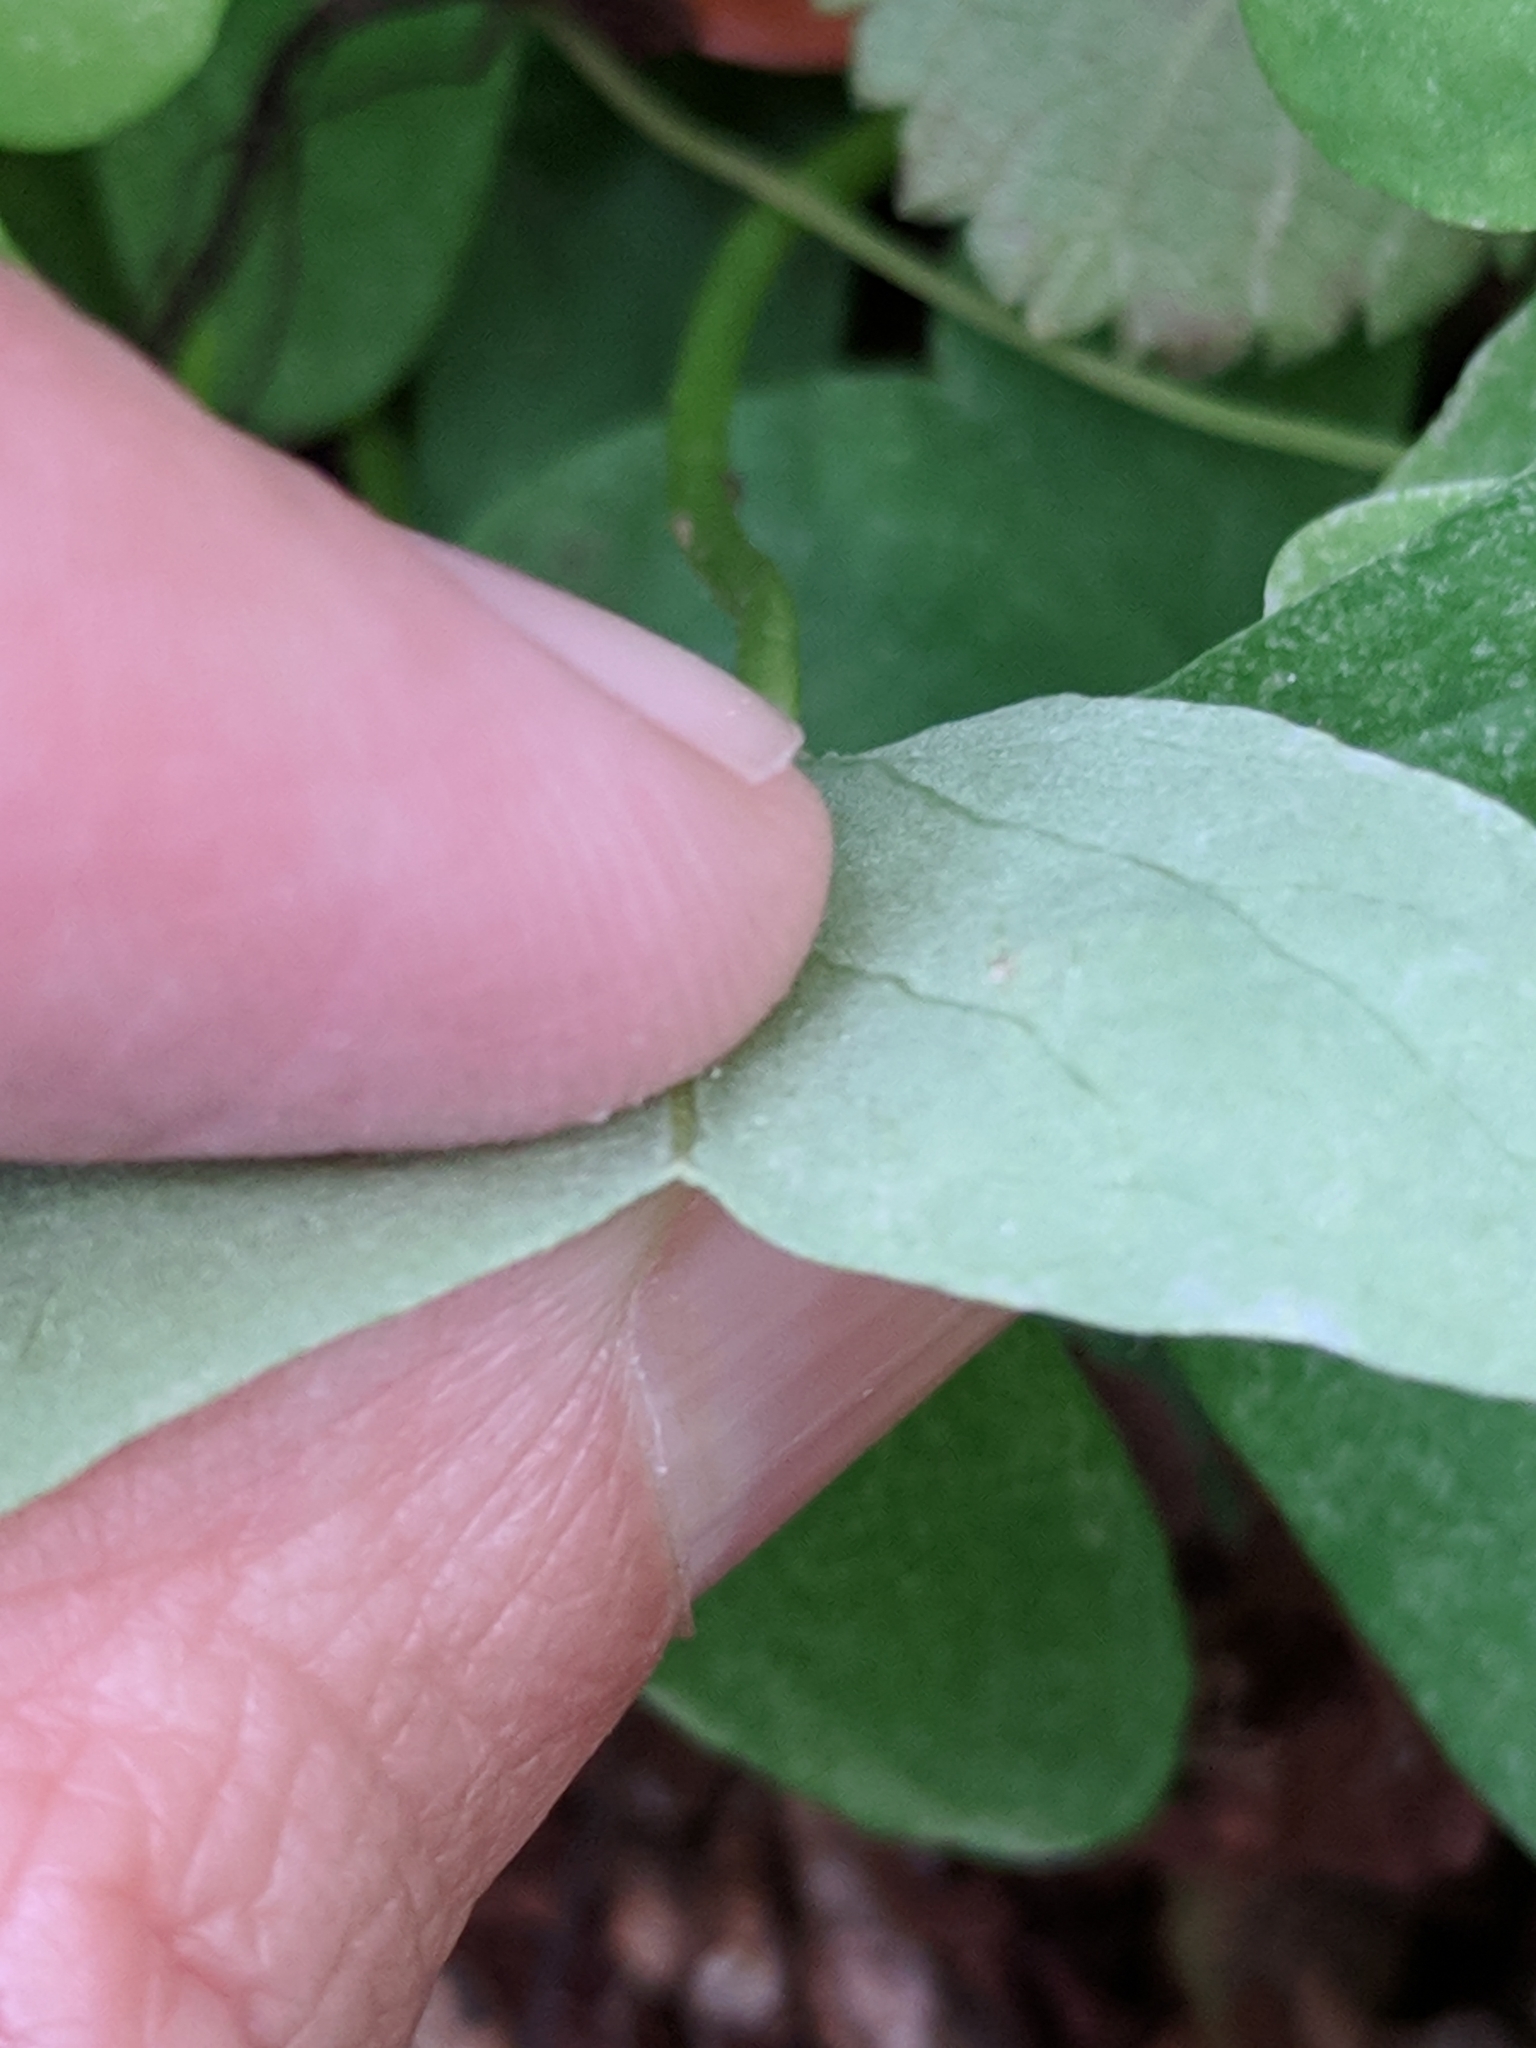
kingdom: Plantae
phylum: Tracheophyta
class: Magnoliopsida
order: Oxalidales
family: Oxalidaceae
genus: Oxalis
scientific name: Oxalis drummondii
